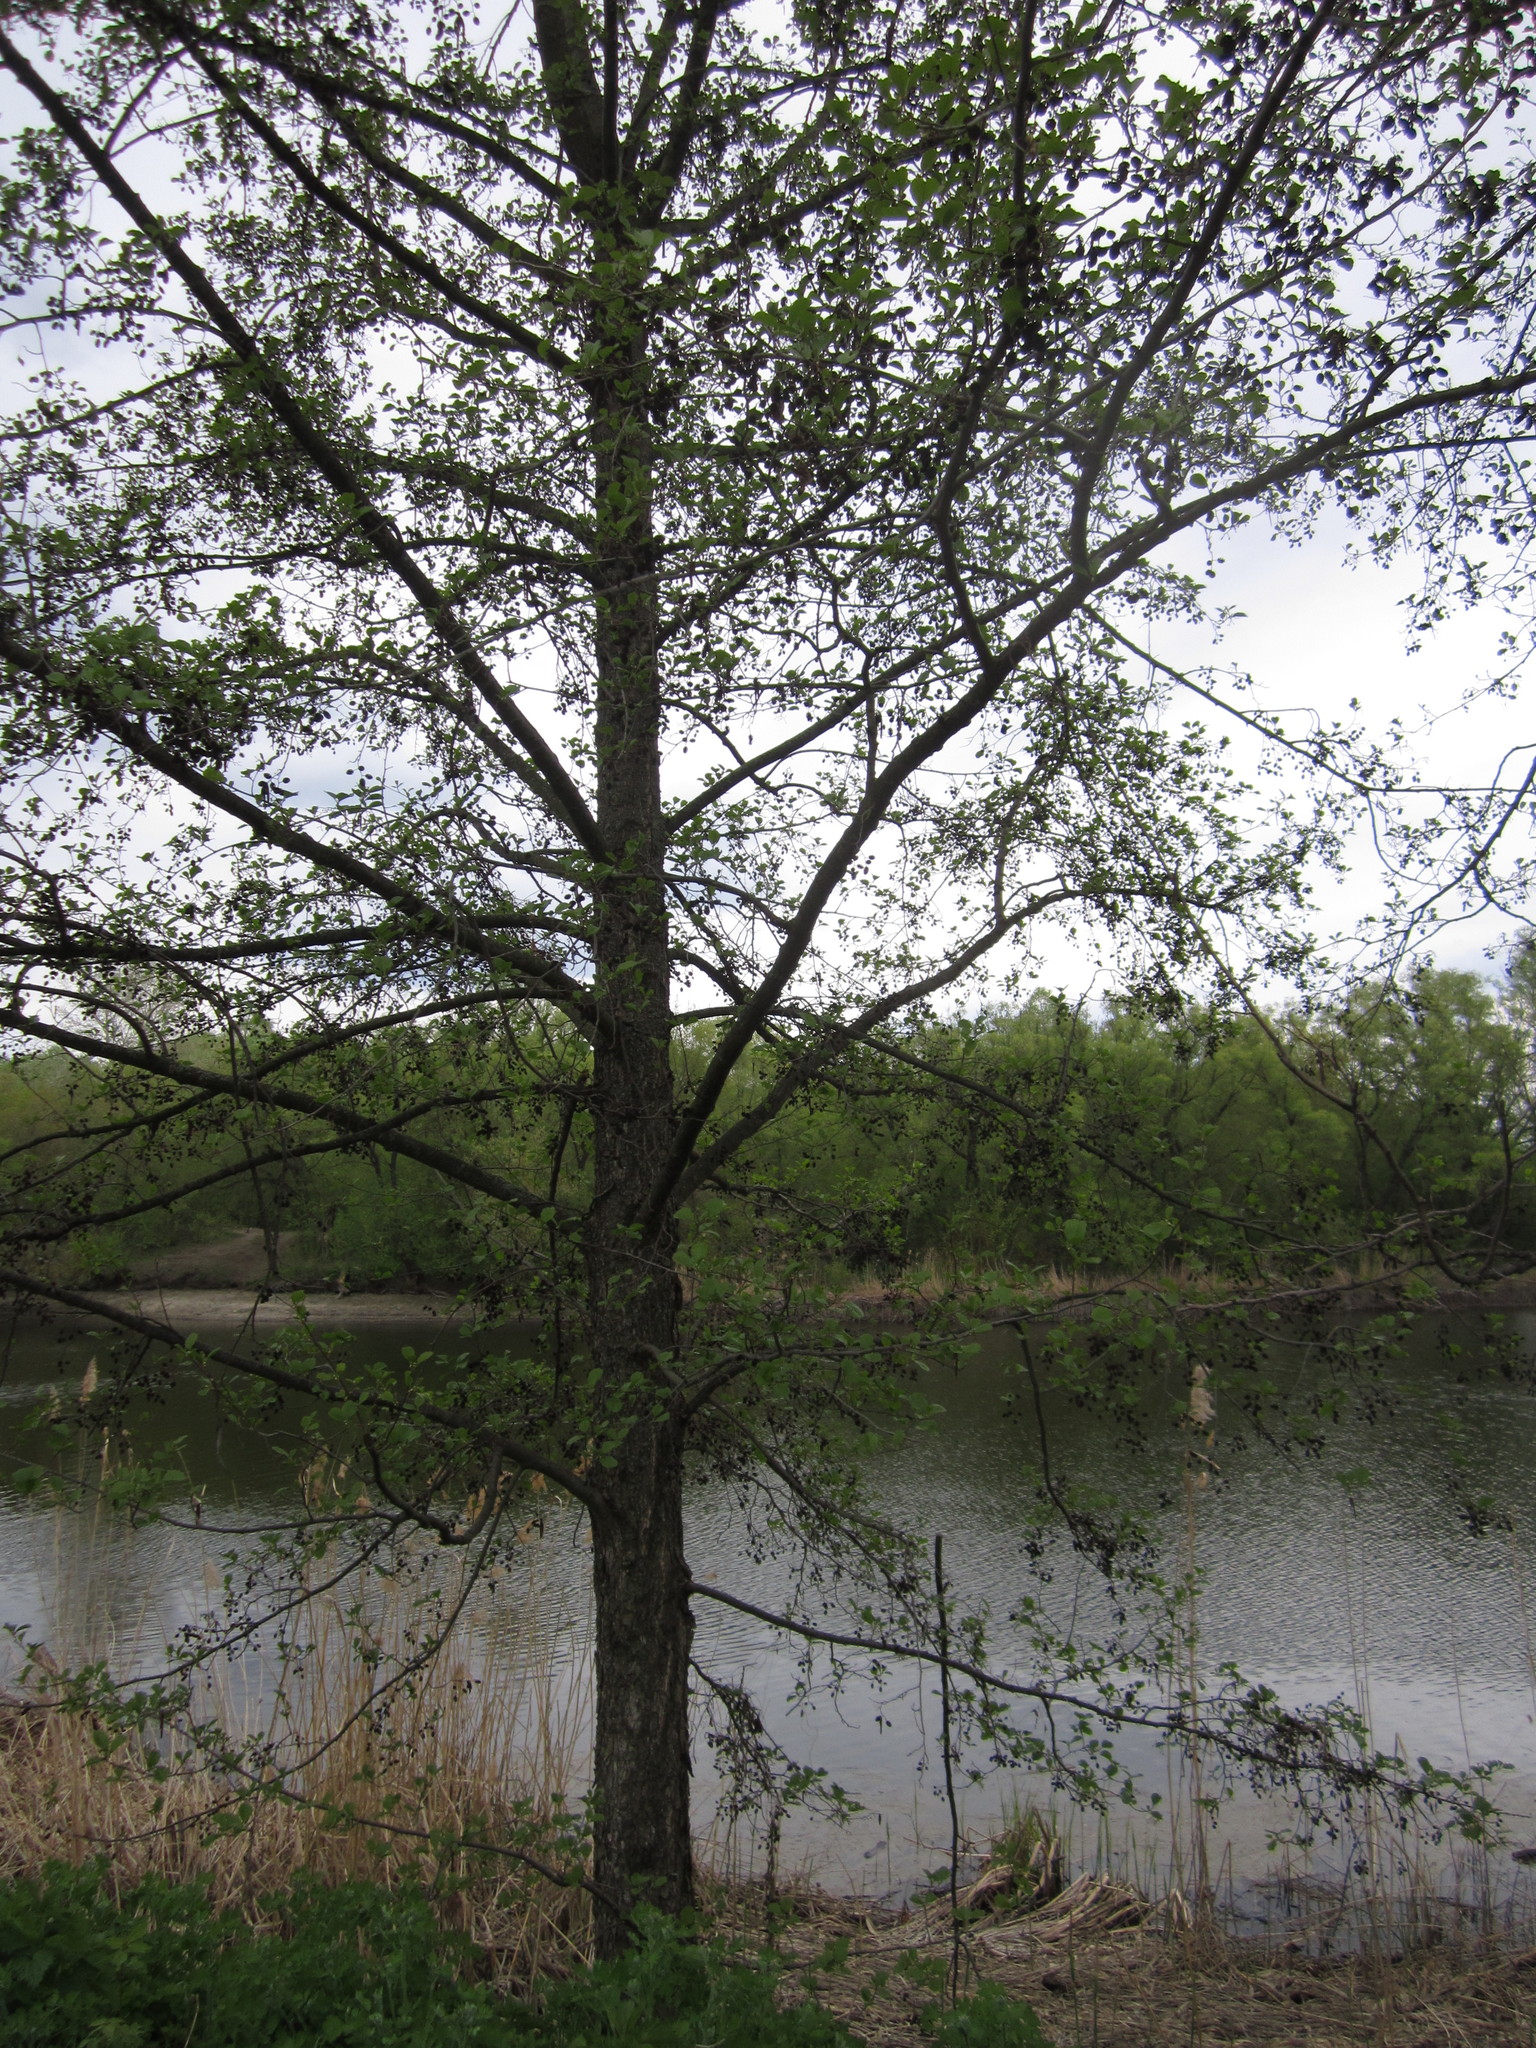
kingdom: Plantae
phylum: Tracheophyta
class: Magnoliopsida
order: Fagales
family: Betulaceae
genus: Alnus
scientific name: Alnus glutinosa
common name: Black alder
